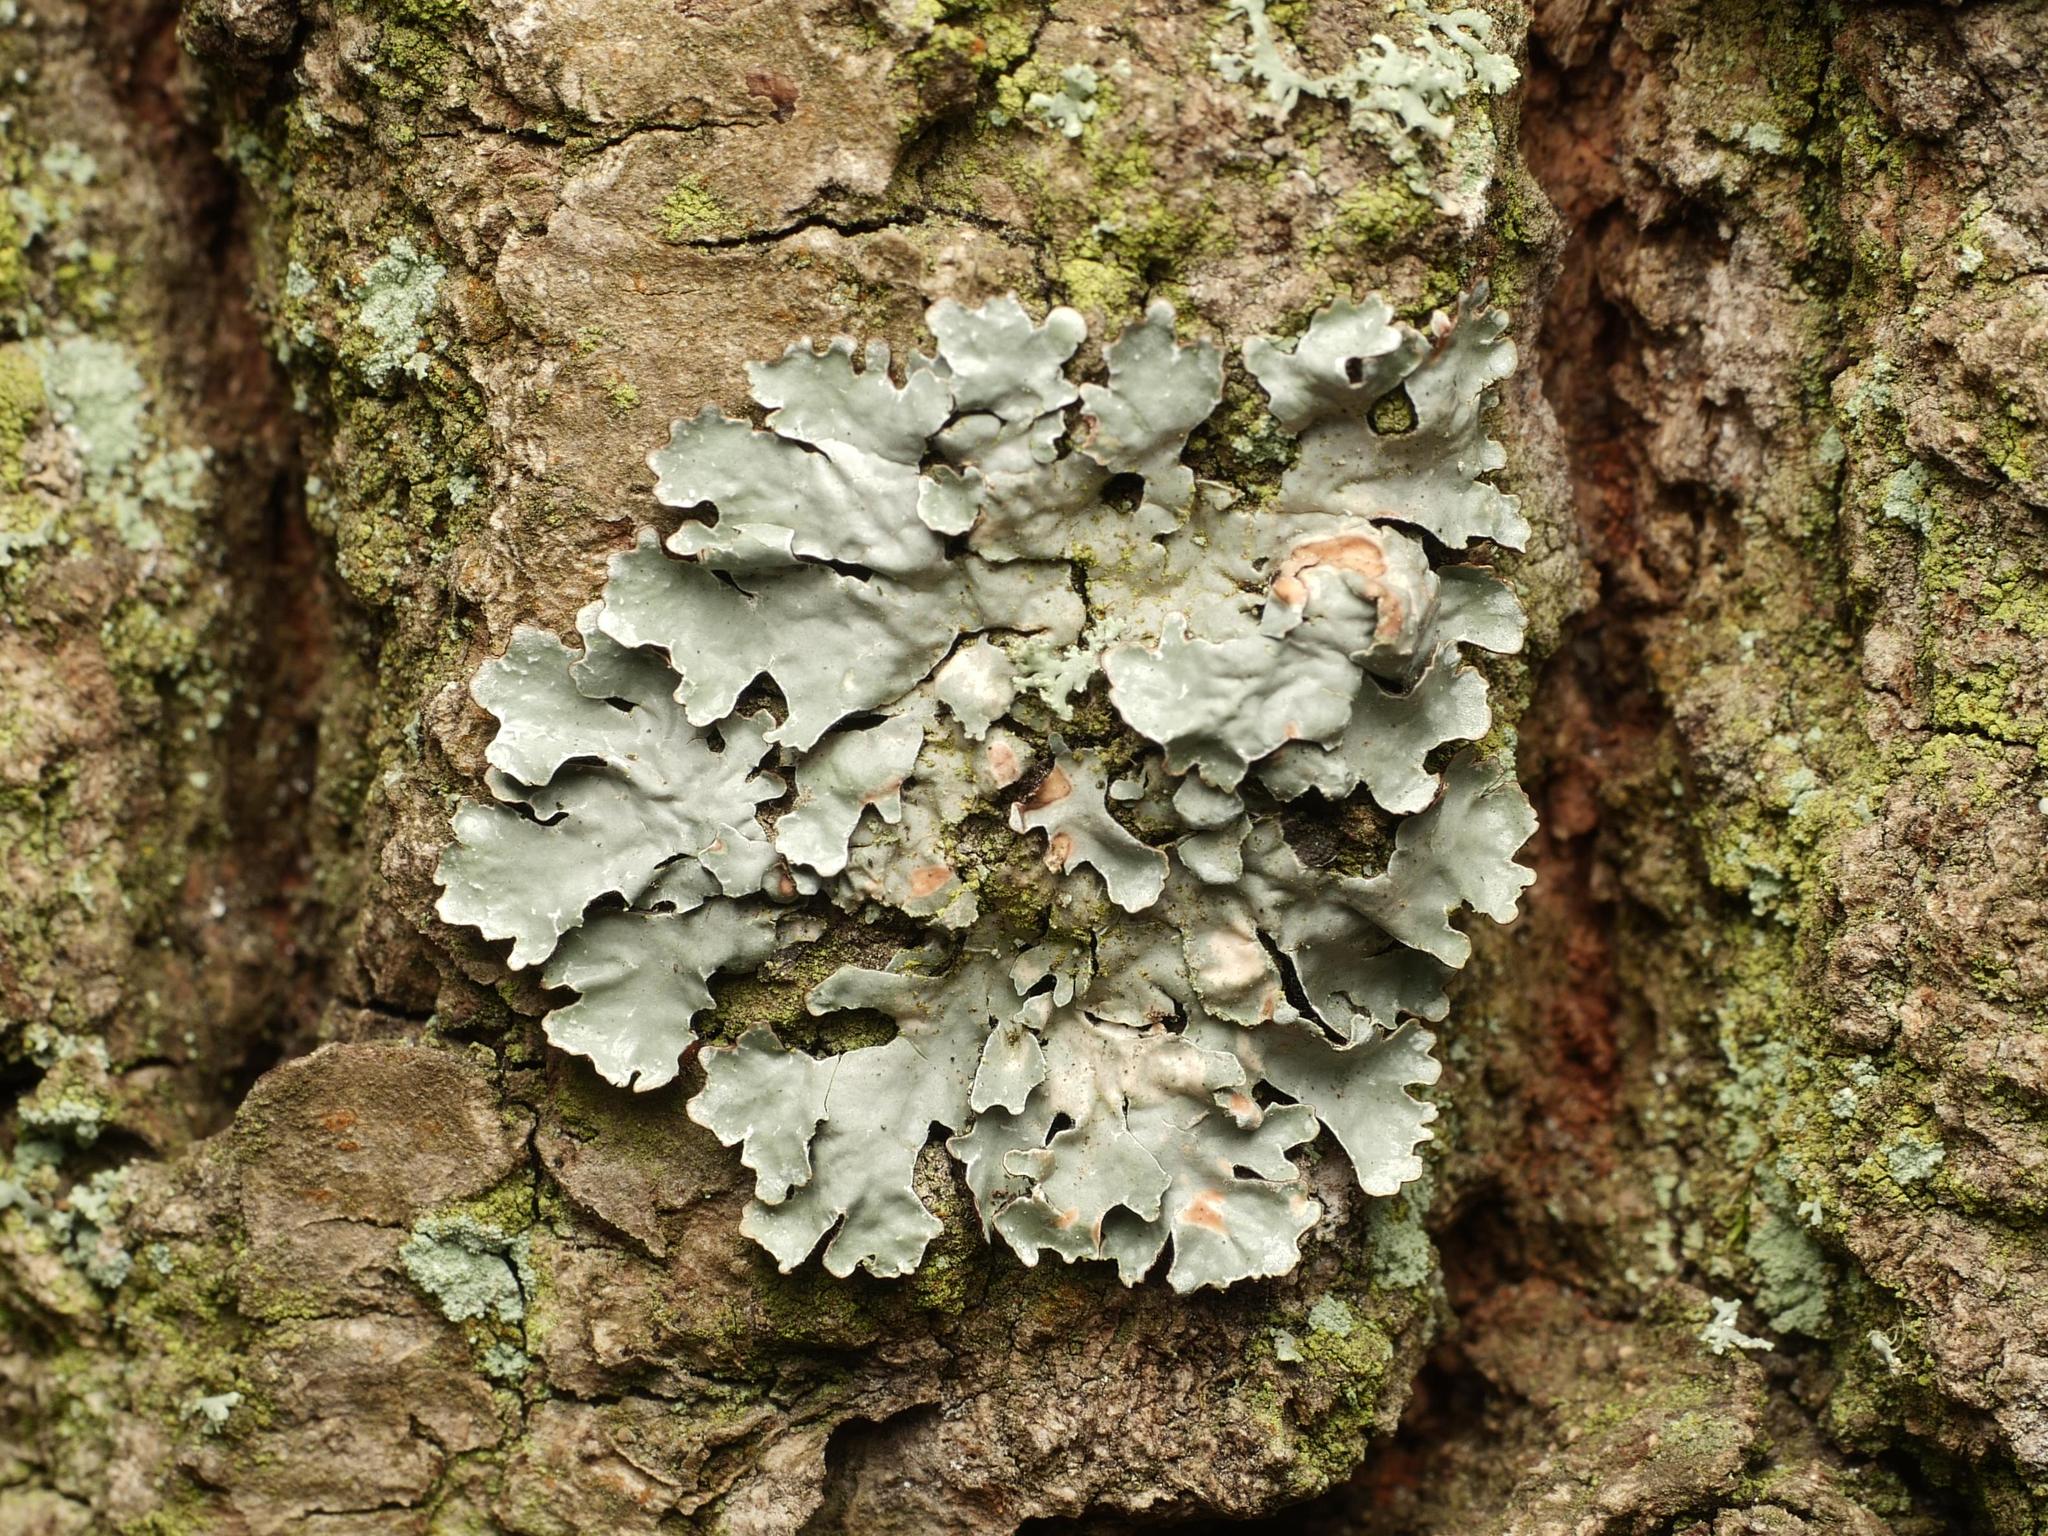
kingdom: Fungi
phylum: Ascomycota
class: Lecanoromycetes
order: Lecanorales
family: Parmeliaceae
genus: Parmelia
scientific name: Parmelia sulcata
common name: Netted shield lichen
